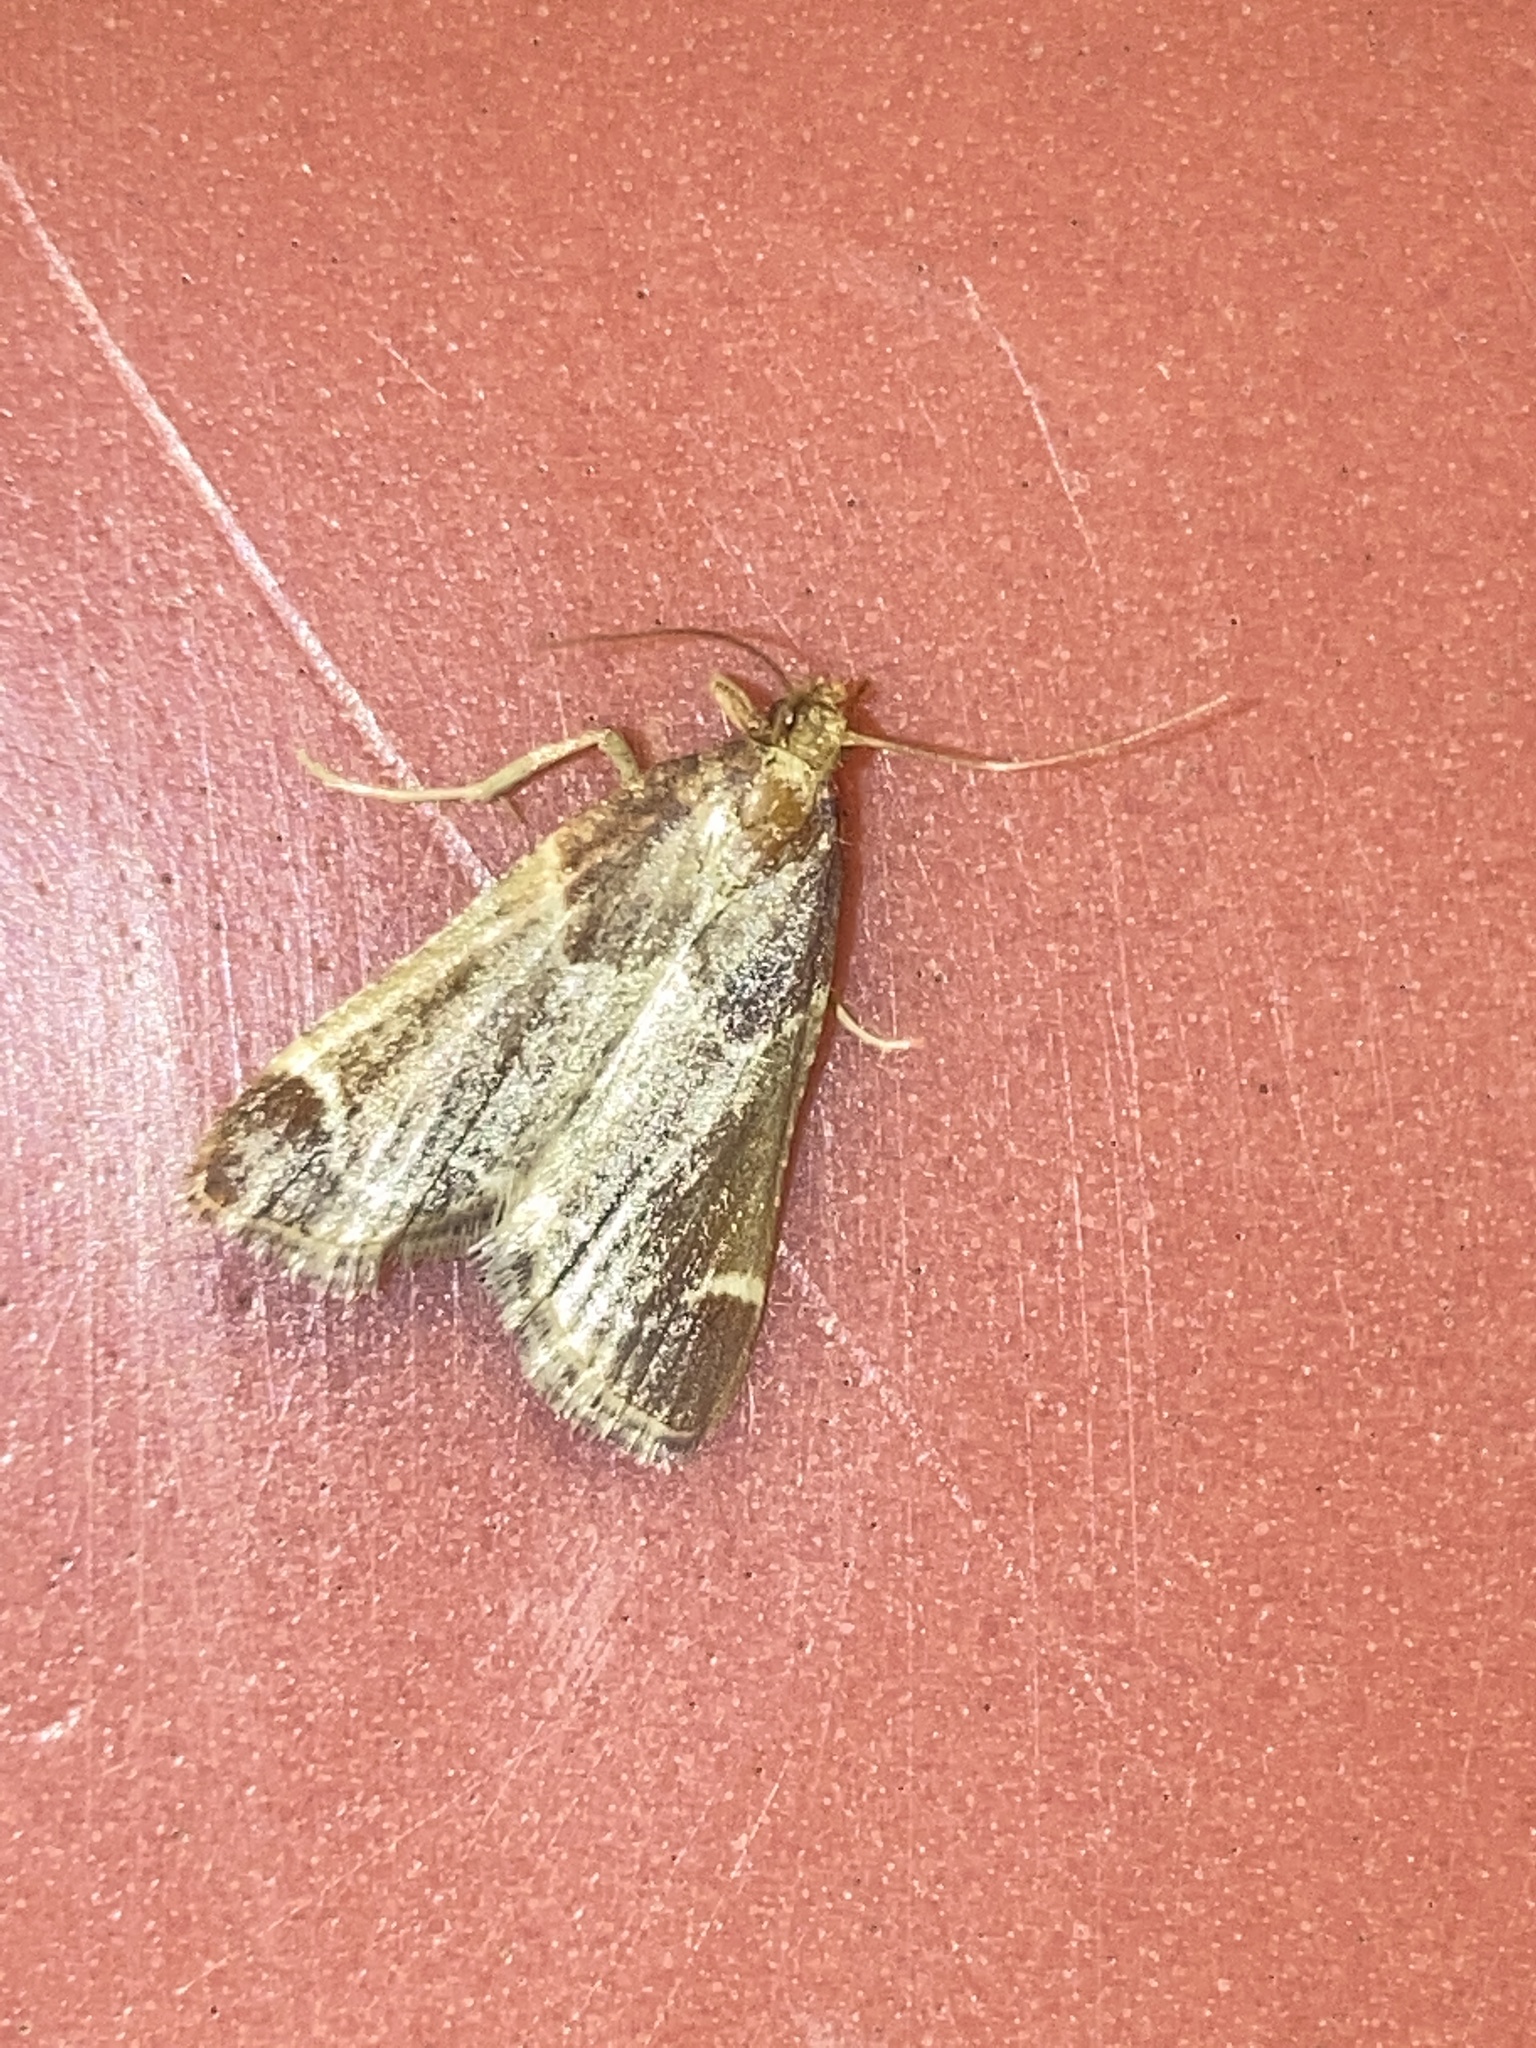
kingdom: Animalia
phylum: Arthropoda
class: Insecta
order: Lepidoptera
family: Pyralidae
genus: Pyralis
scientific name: Pyralis farinalis
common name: Meal moth
